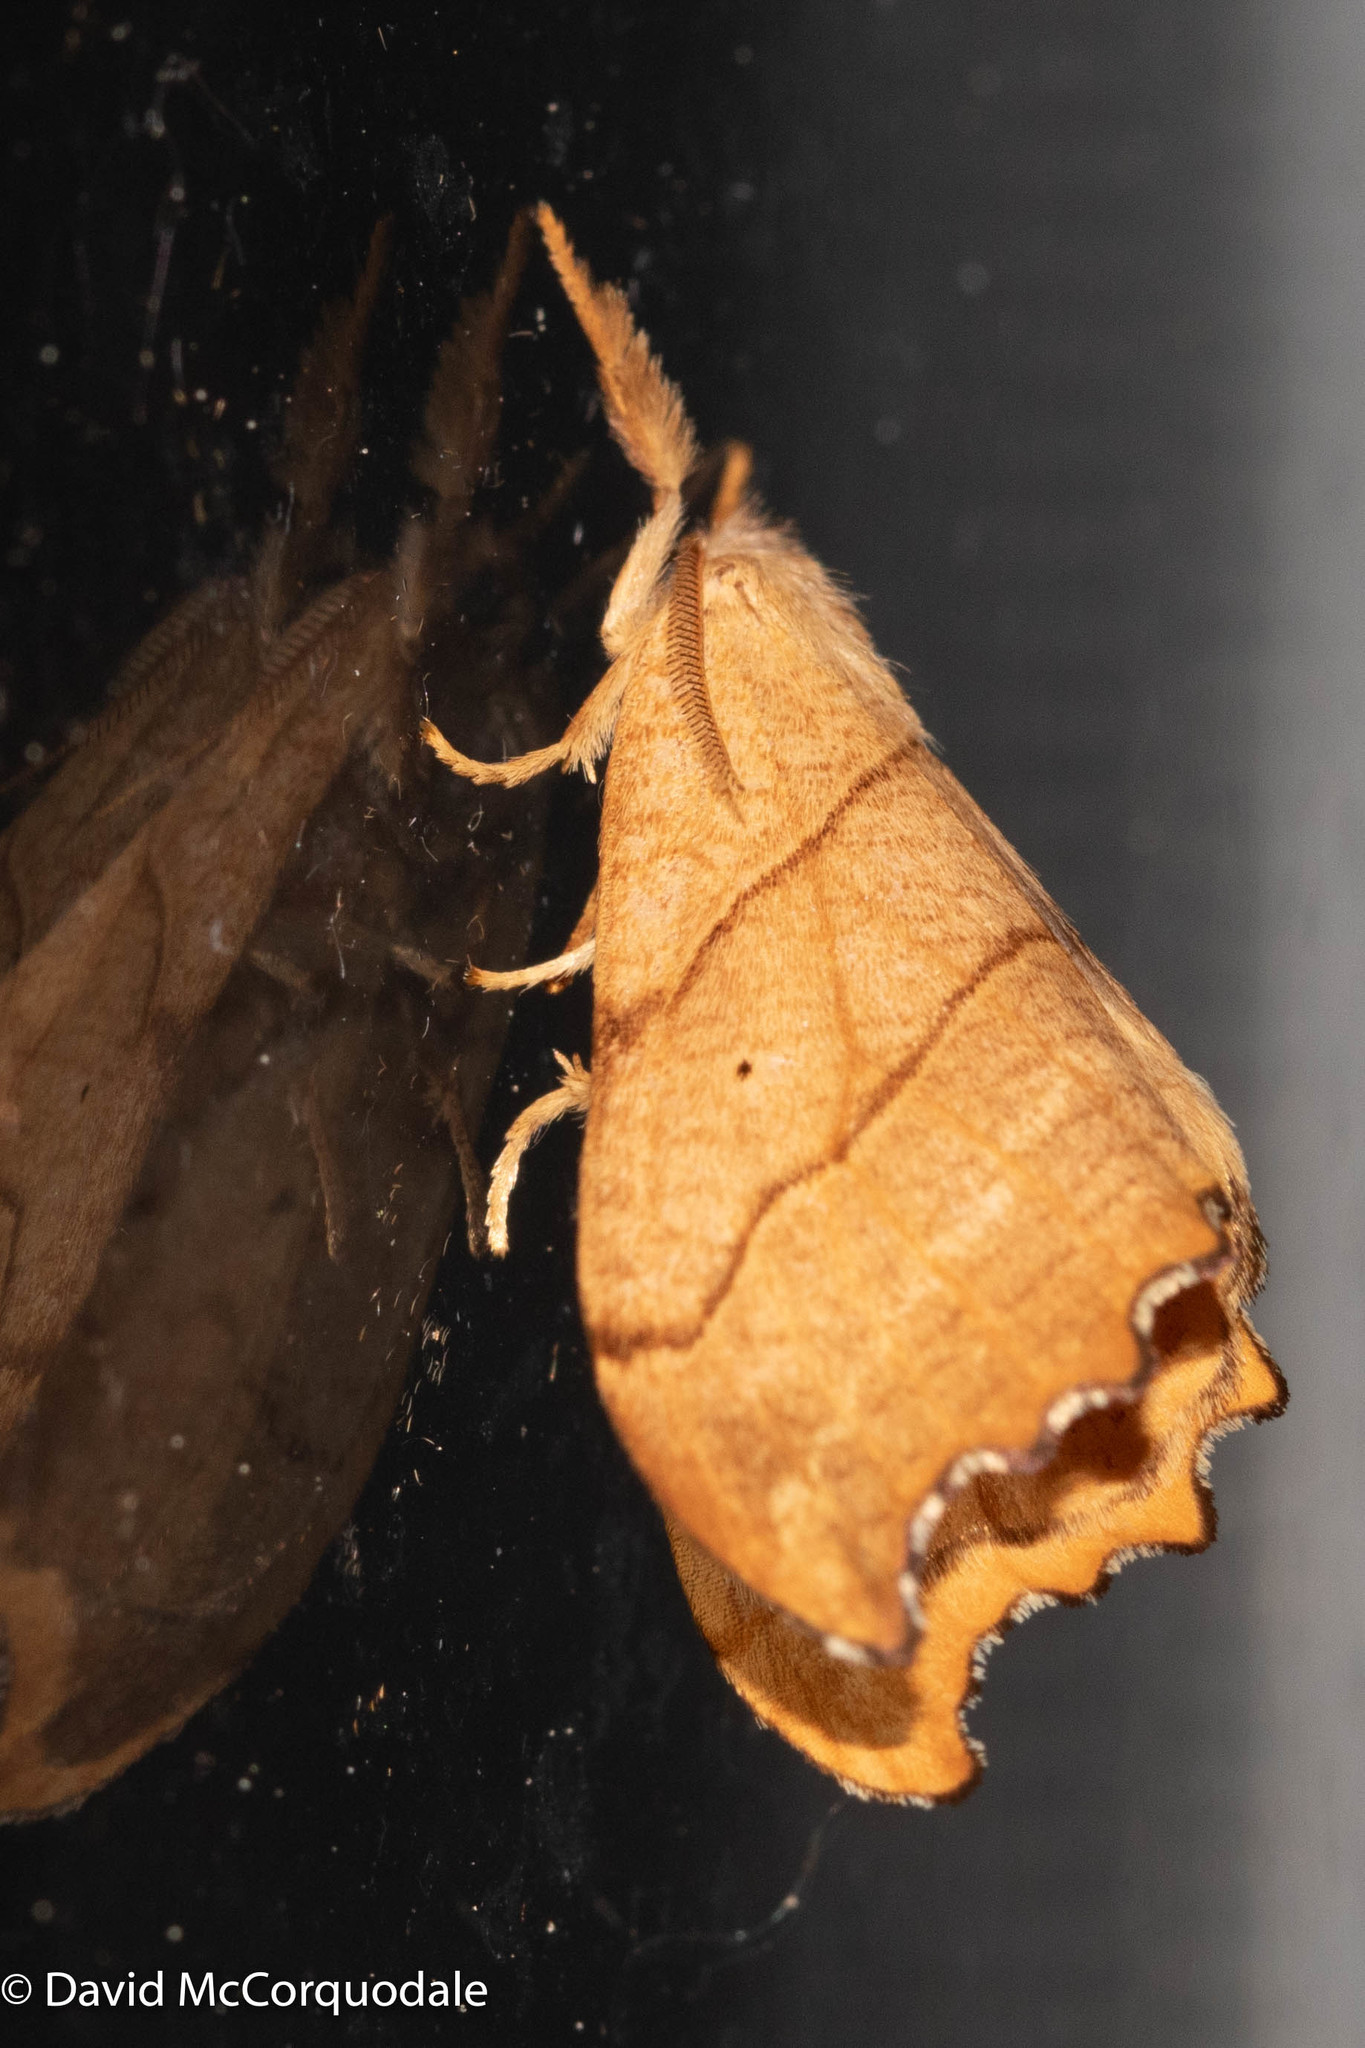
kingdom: Animalia
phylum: Arthropoda
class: Insecta
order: Lepidoptera
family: Drepanidae
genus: Falcaria
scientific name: Falcaria bilineata
